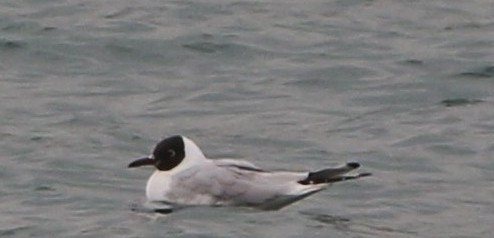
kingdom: Animalia
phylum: Chordata
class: Aves
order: Charadriiformes
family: Laridae
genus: Chroicocephalus
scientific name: Chroicocephalus ridibundus
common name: Black-headed gull
